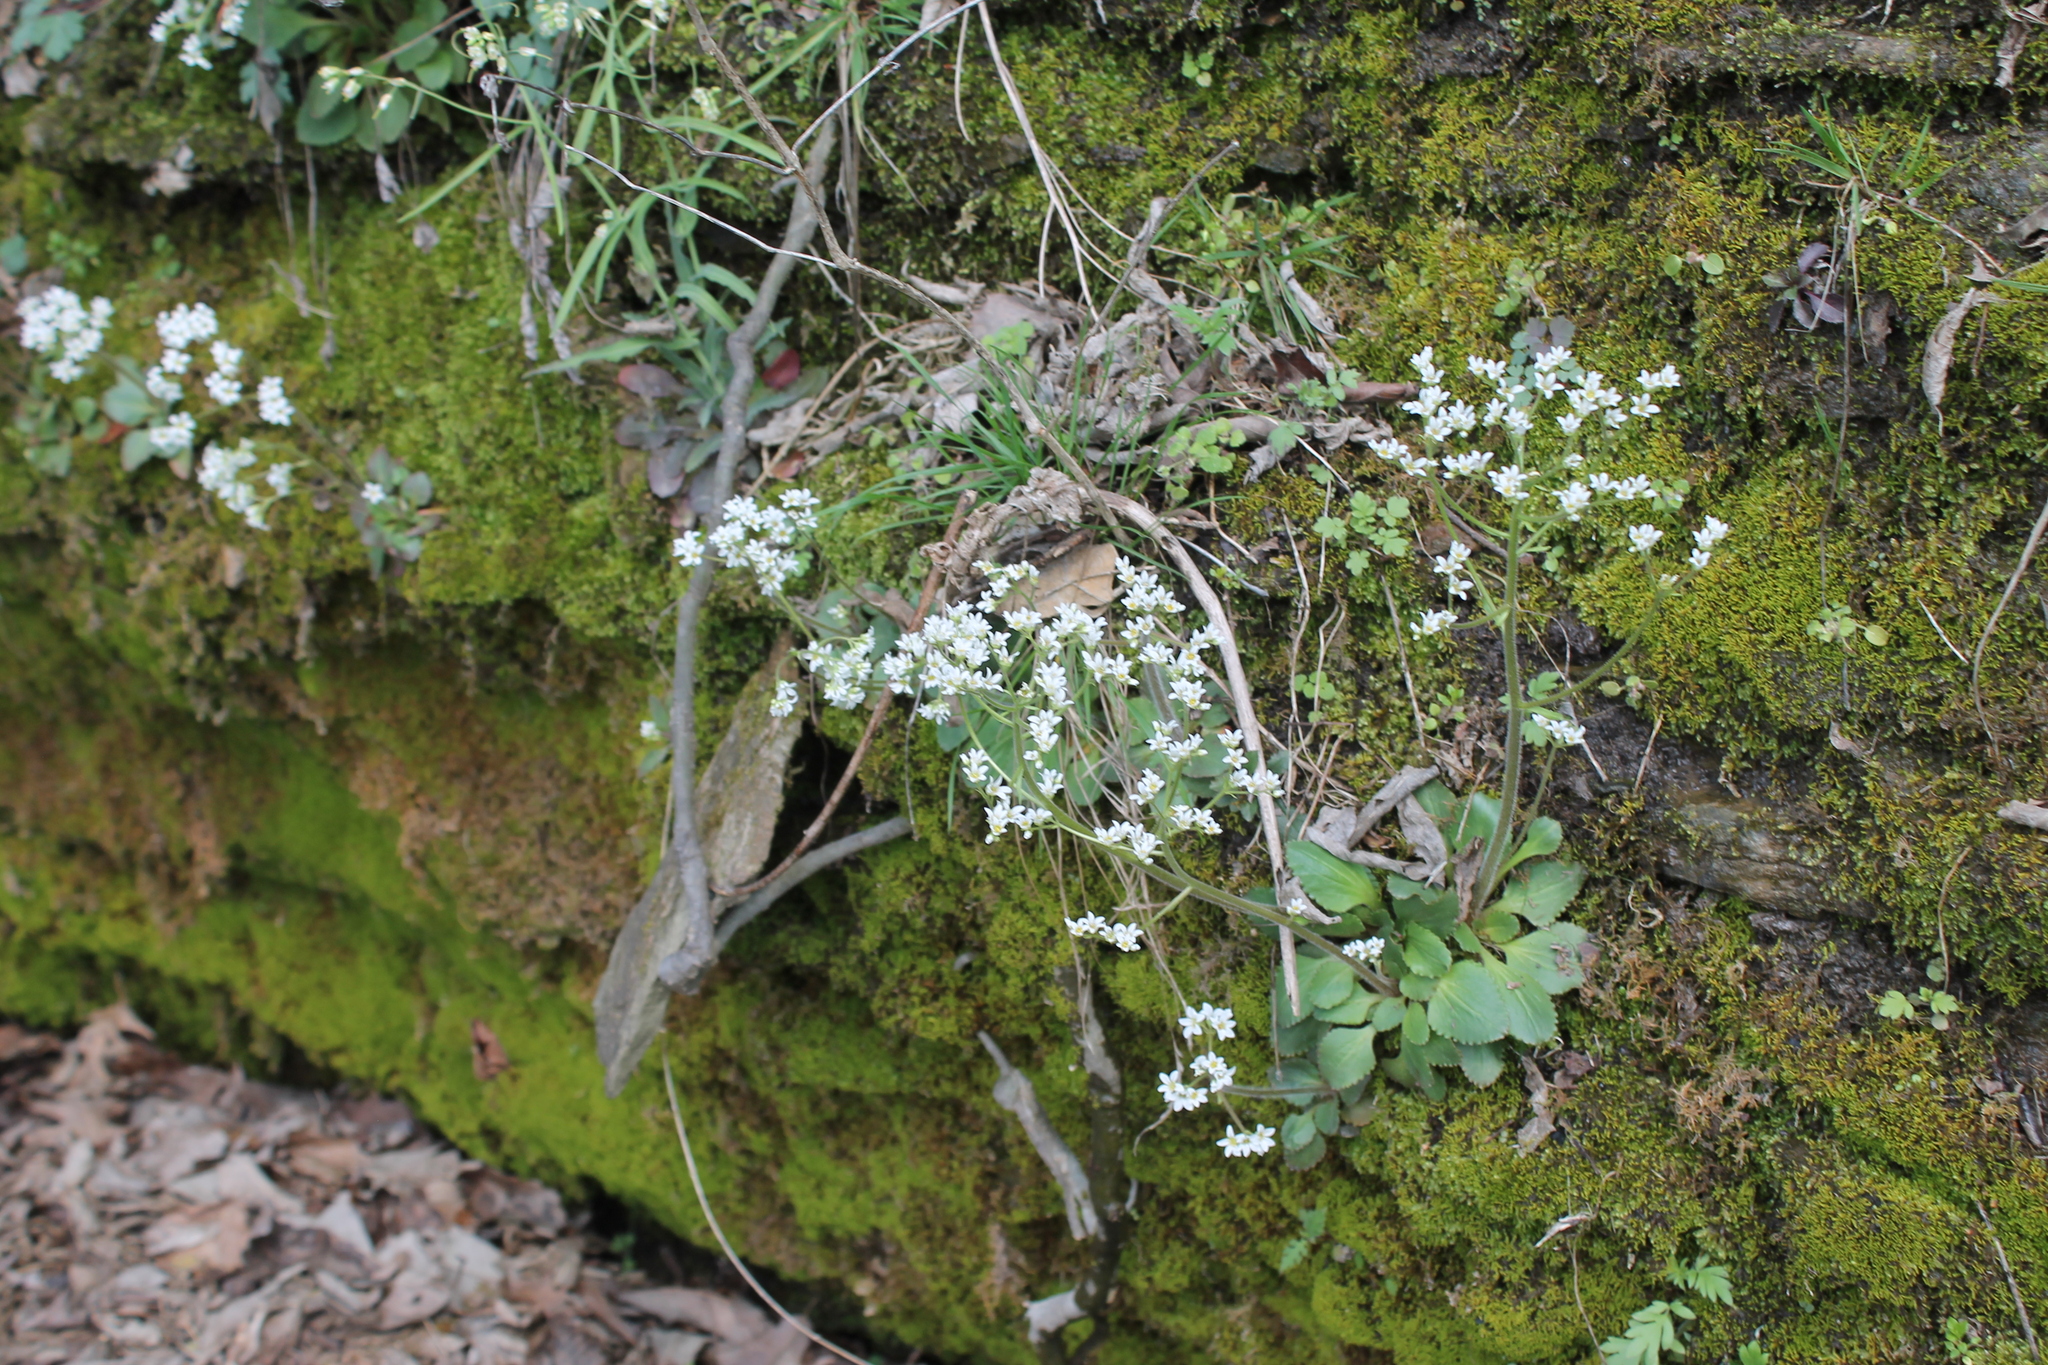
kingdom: Plantae
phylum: Tracheophyta
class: Magnoliopsida
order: Saxifragales
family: Saxifragaceae
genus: Micranthes
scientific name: Micranthes virginiensis
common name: Early saxifrage
